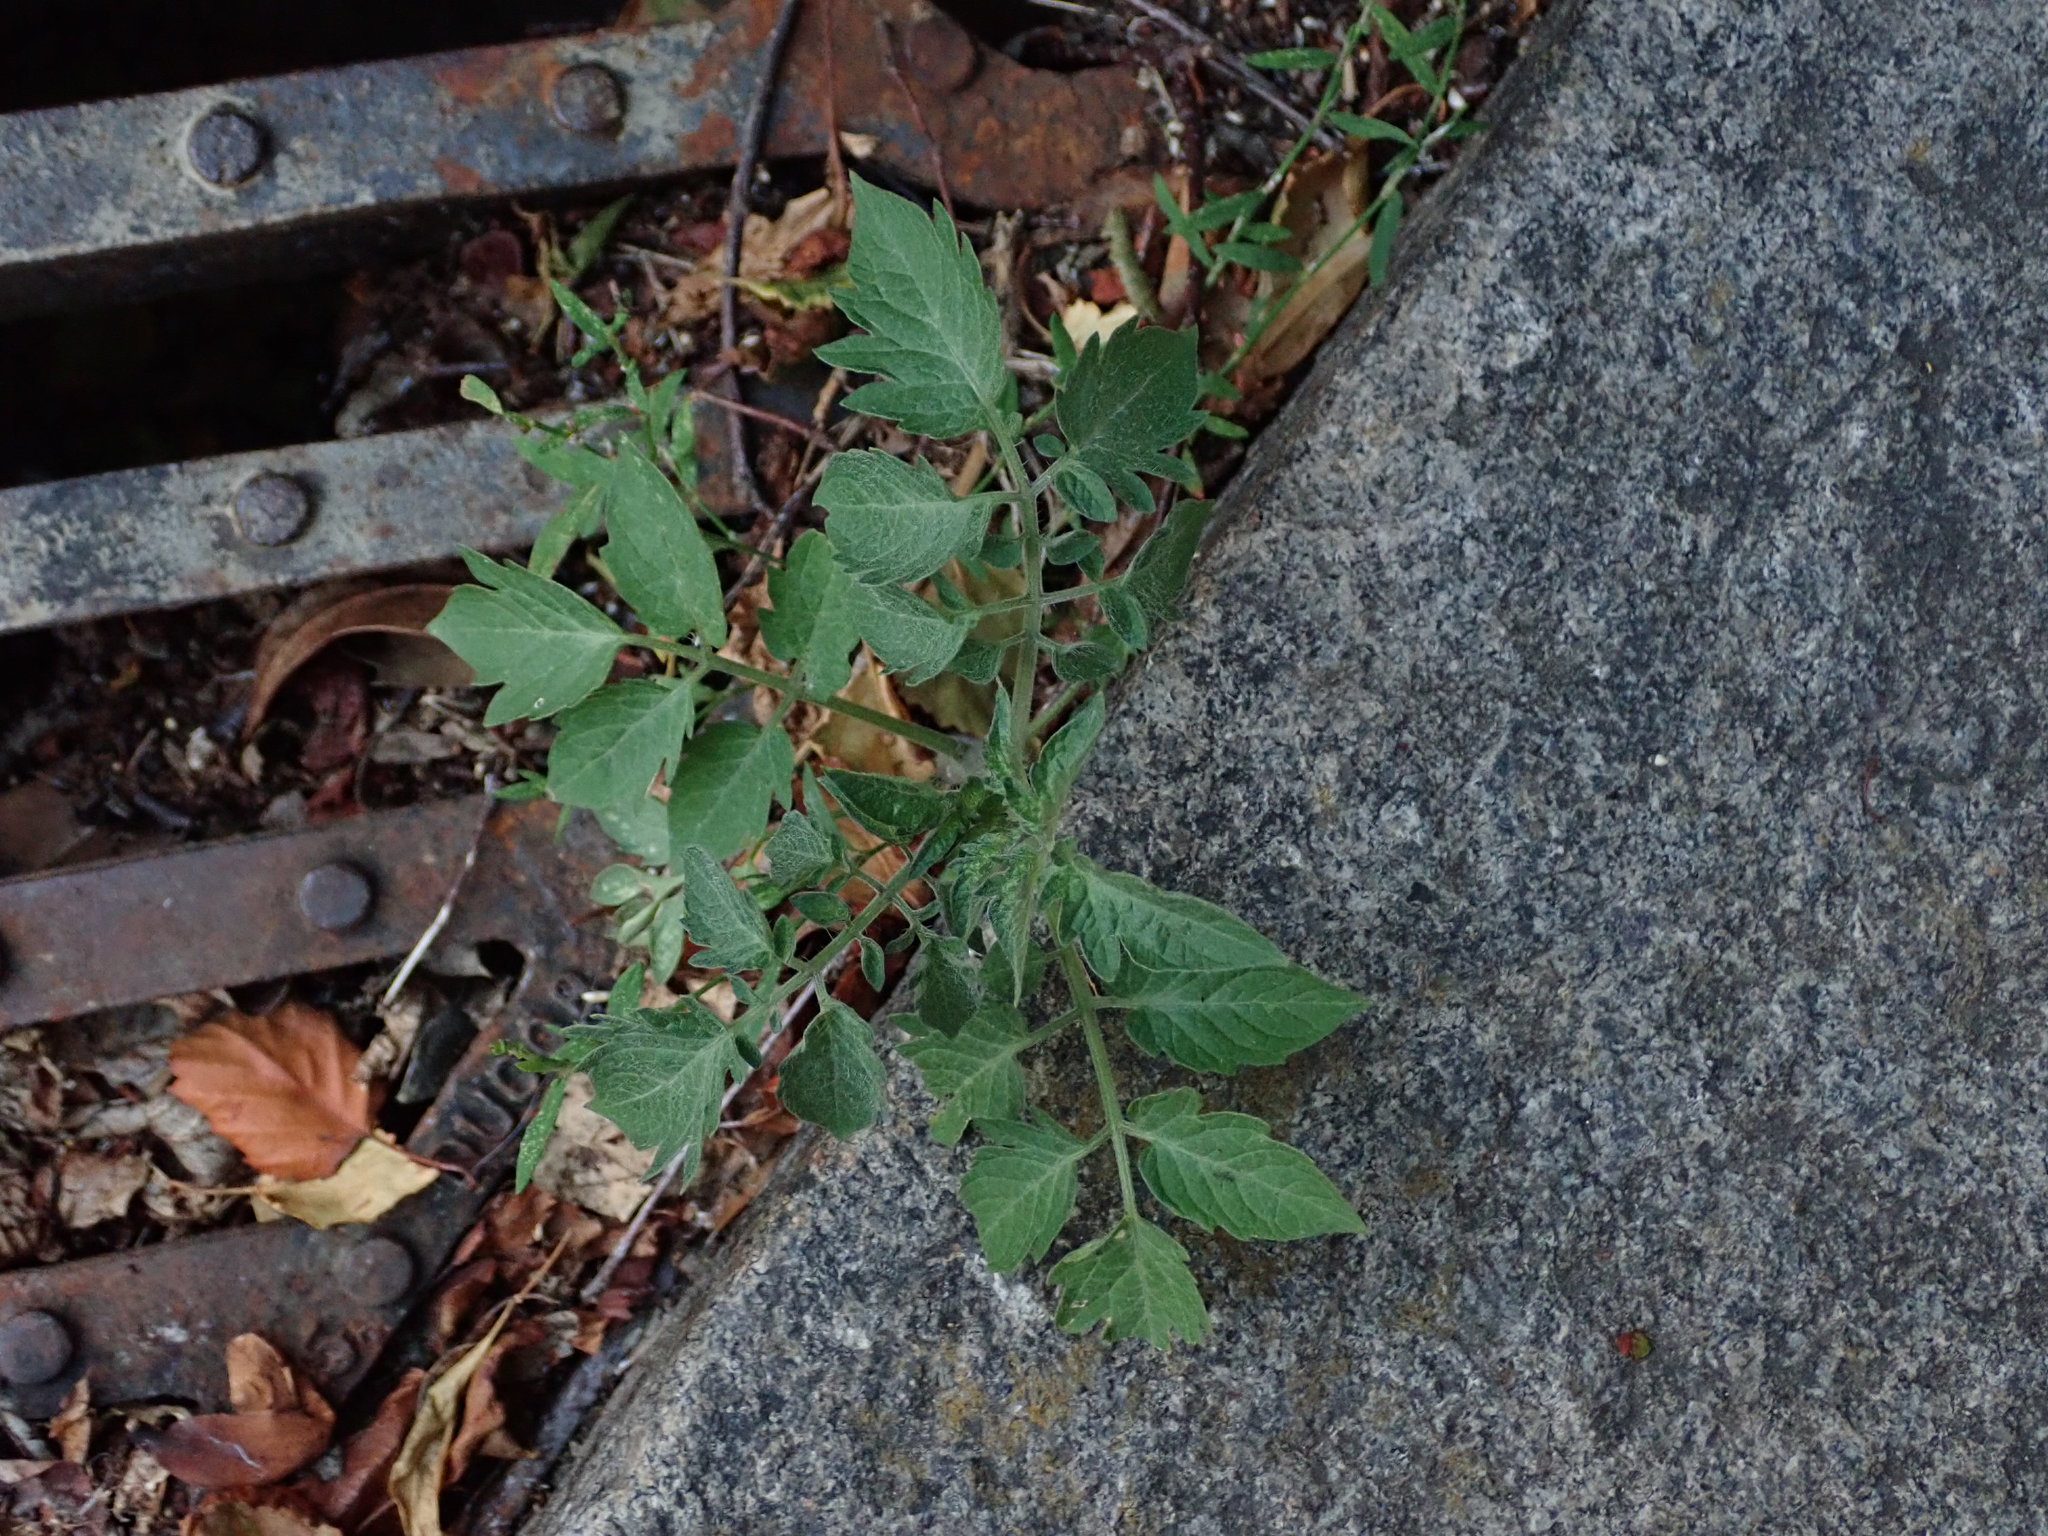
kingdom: Plantae
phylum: Tracheophyta
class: Magnoliopsida
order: Solanales
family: Solanaceae
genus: Solanum
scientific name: Solanum lycopersicum
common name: Garden tomato
